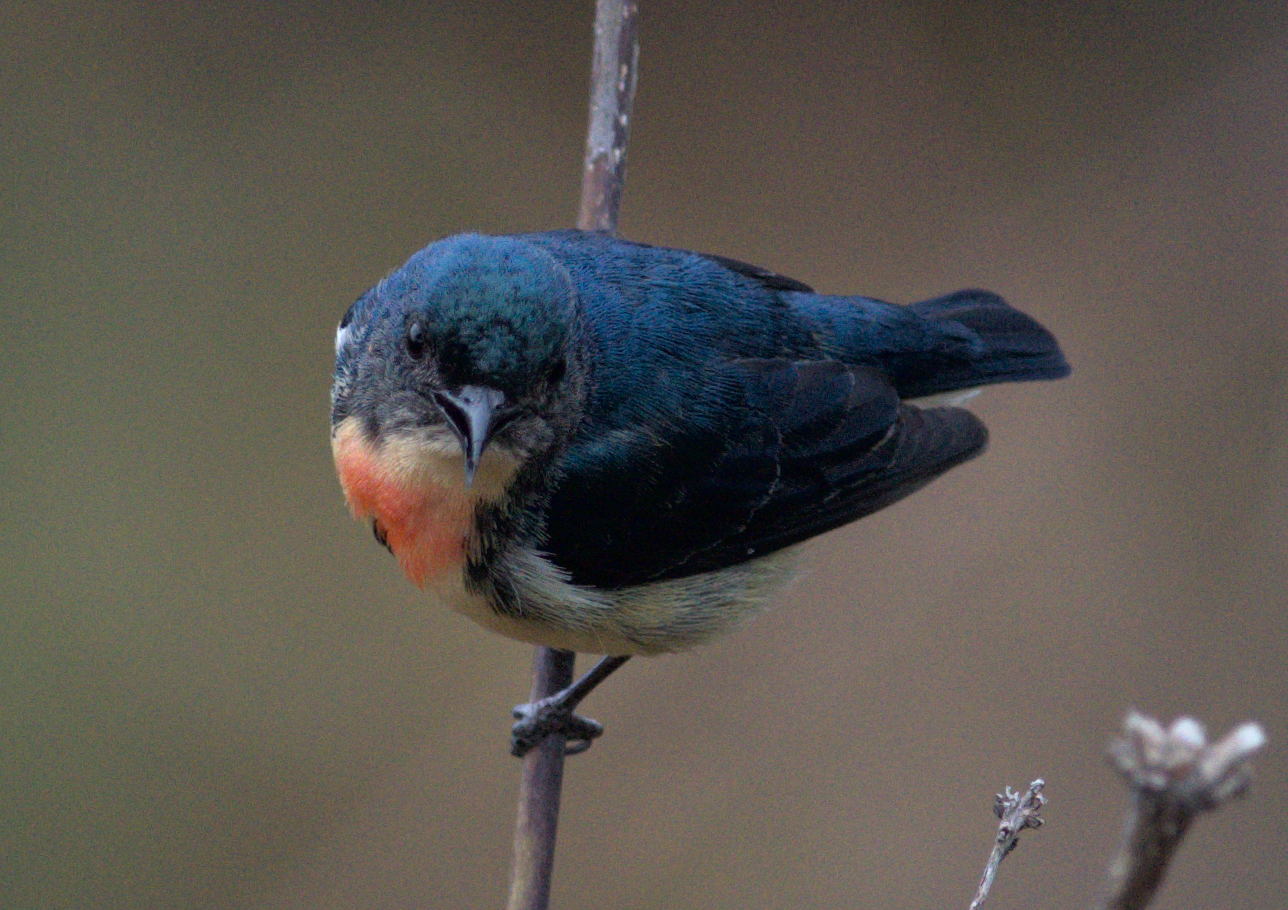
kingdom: Animalia
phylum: Chordata
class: Aves
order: Passeriformes
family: Dicaeidae
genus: Dicaeum
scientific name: Dicaeum ignipectus
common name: Fire-breasted flowerpecker
